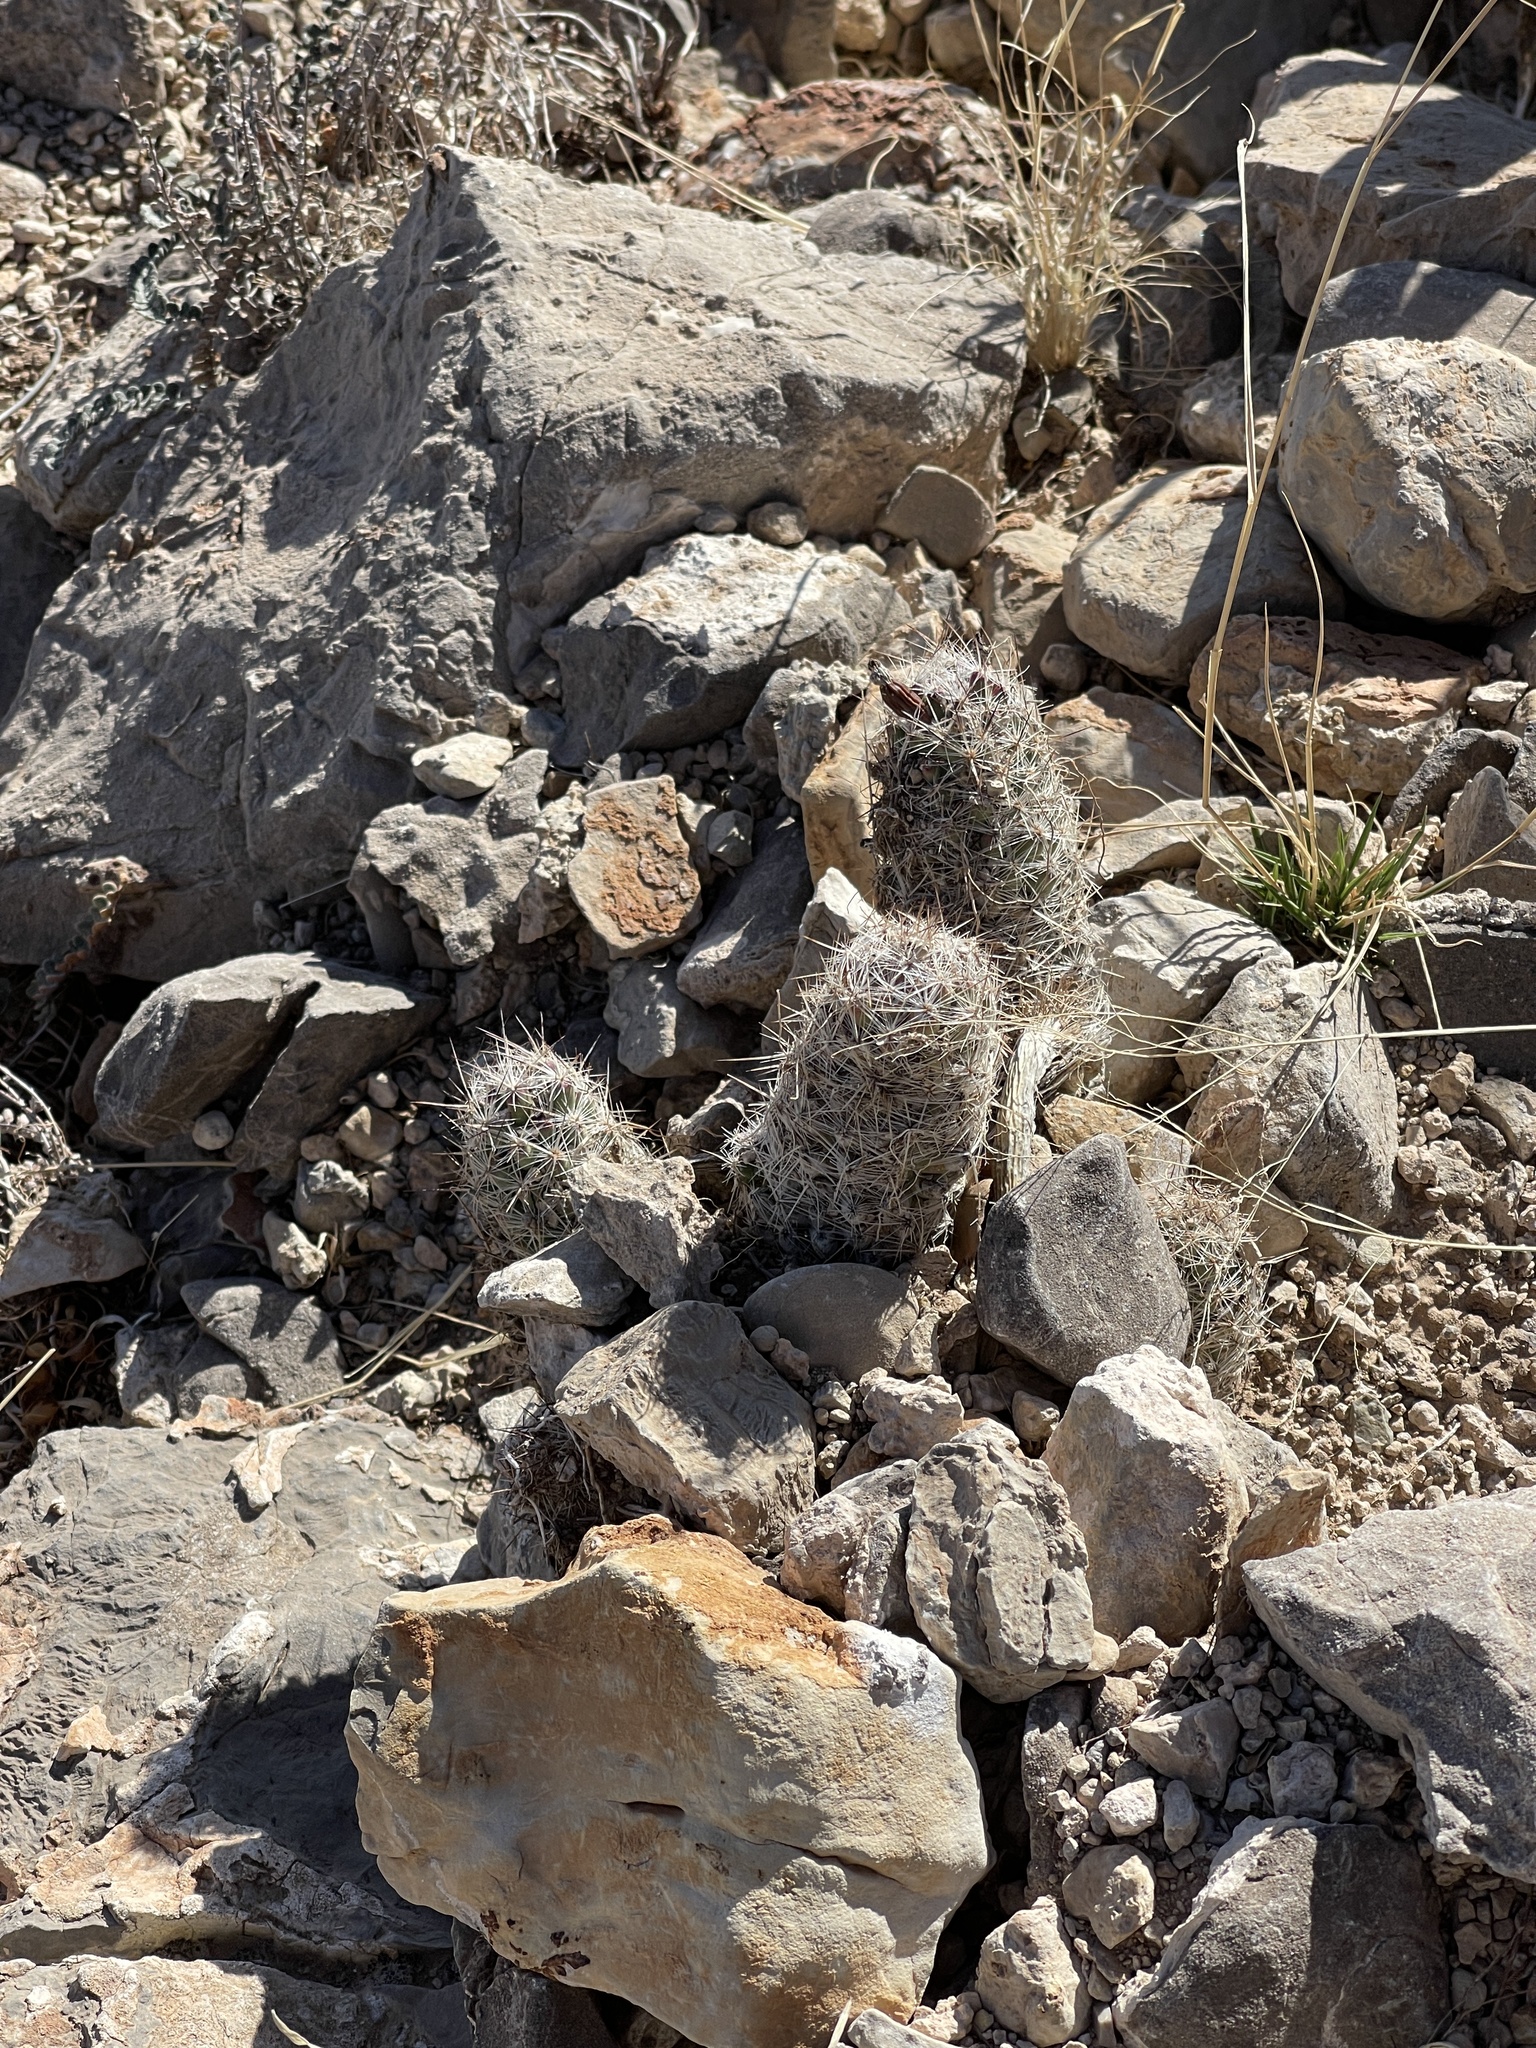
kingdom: Plantae
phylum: Tracheophyta
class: Magnoliopsida
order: Caryophyllales
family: Cactaceae
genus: Pelecyphora
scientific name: Pelecyphora tuberculosa
